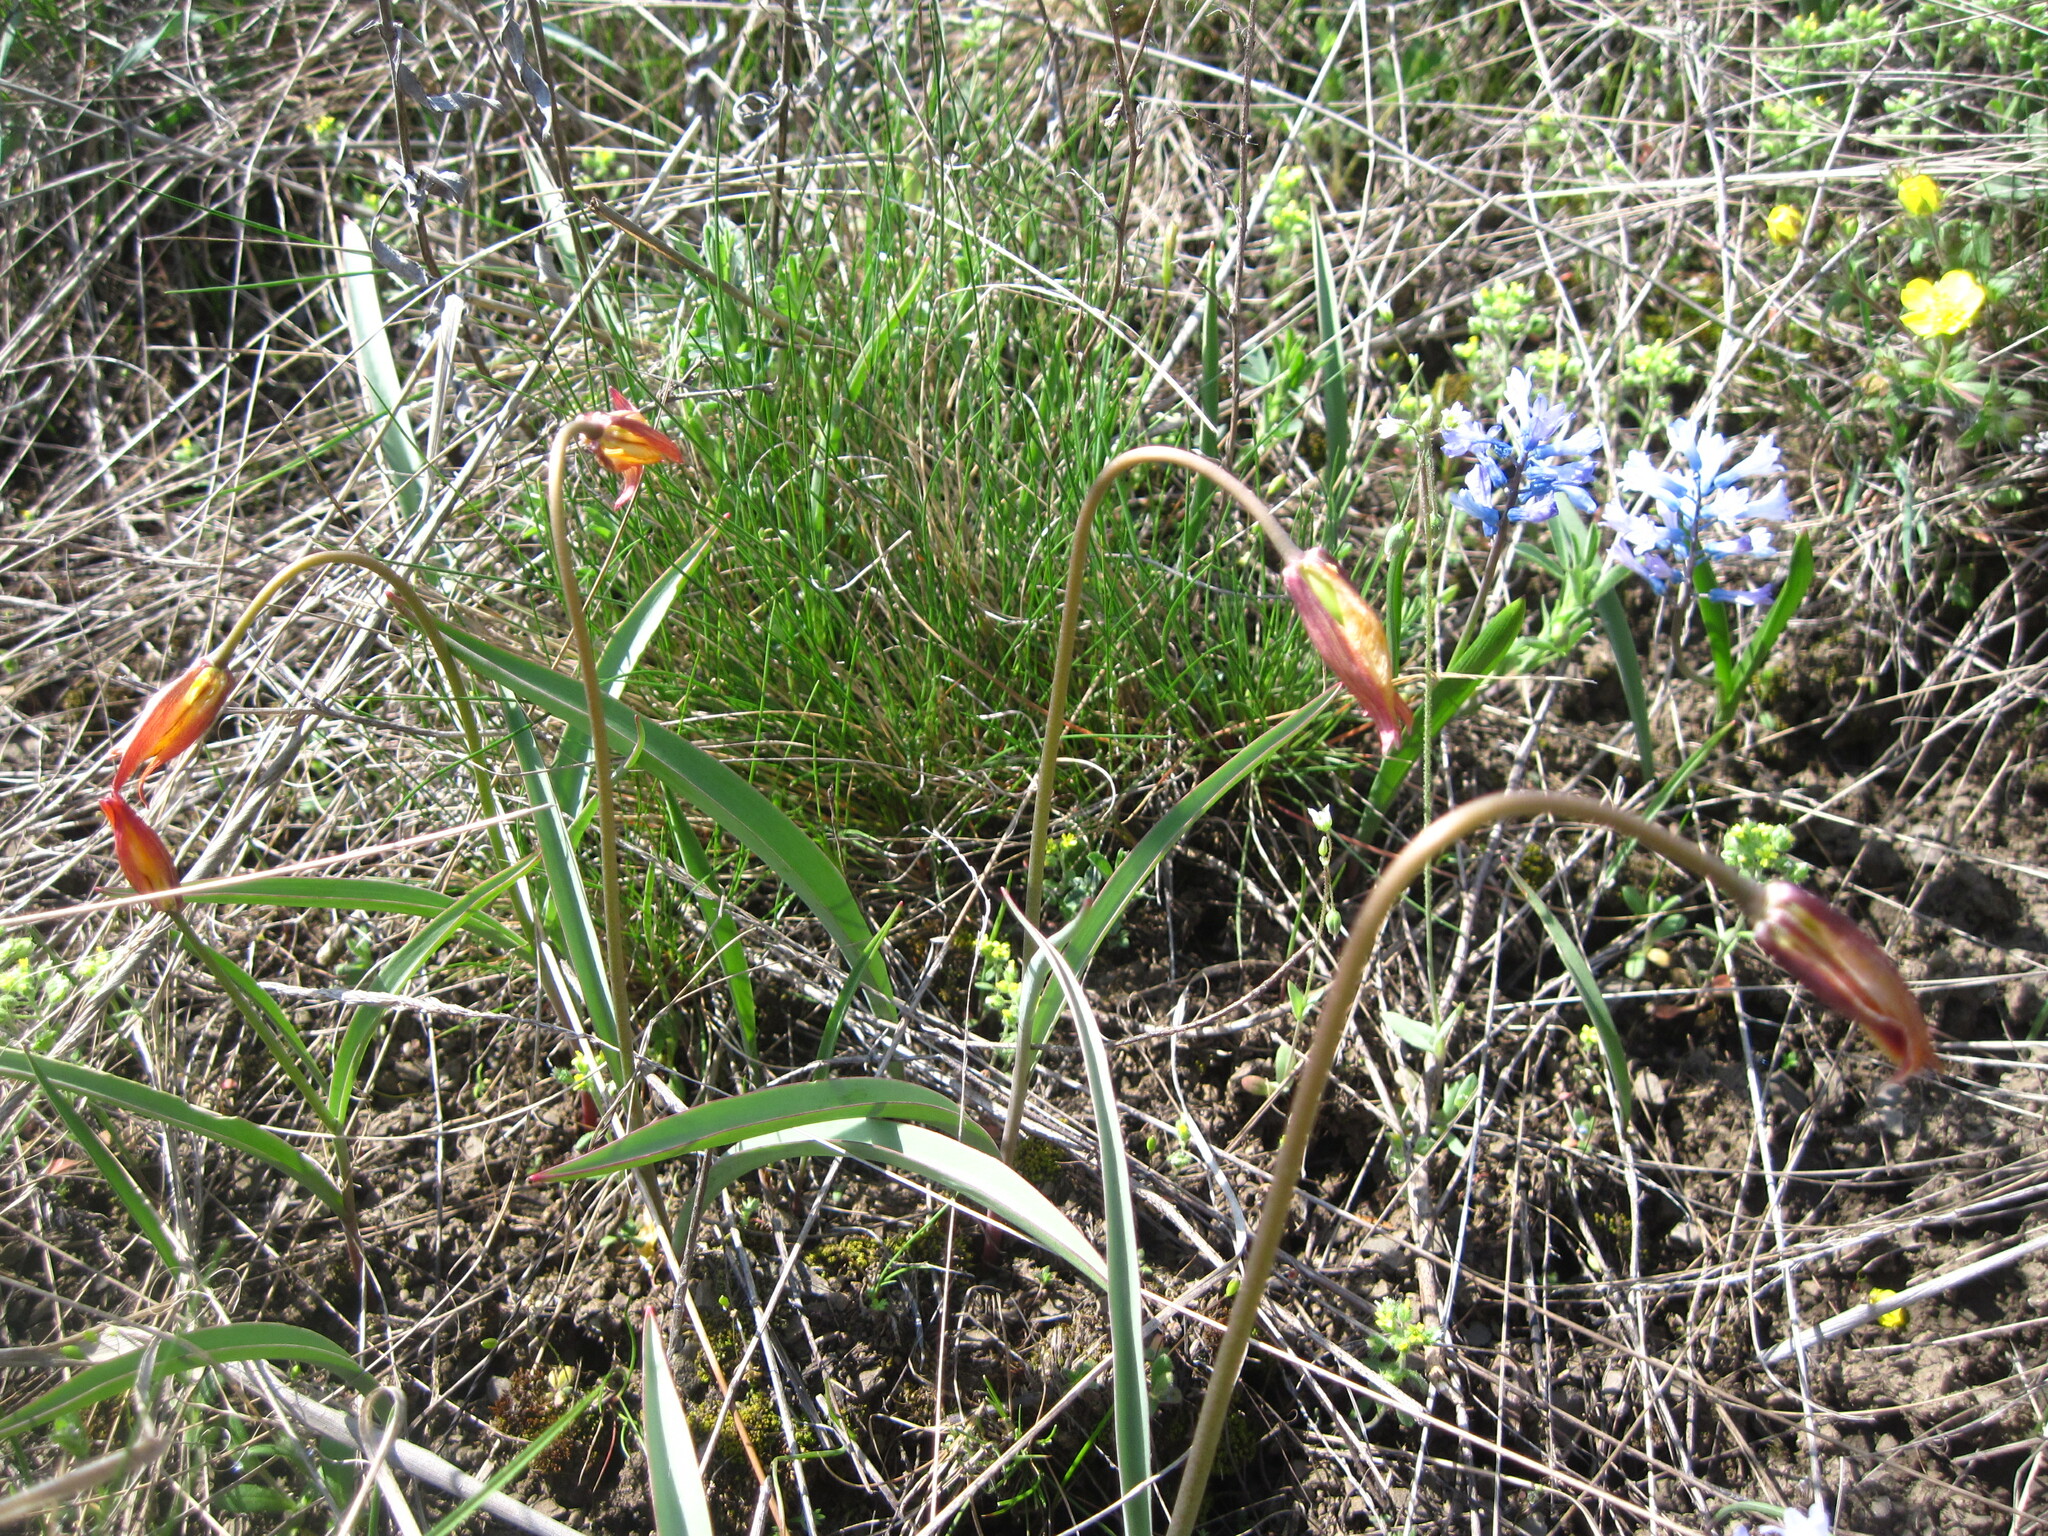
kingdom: Plantae
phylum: Tracheophyta
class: Liliopsida
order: Liliales
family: Liliaceae
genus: Tulipa
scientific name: Tulipa sylvestris
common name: Wild tulip
